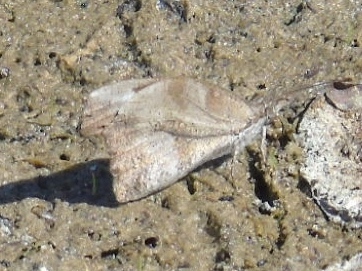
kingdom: Animalia
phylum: Arthropoda
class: Insecta
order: Lepidoptera
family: Nymphalidae
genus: Libytheana
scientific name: Libytheana carinenta
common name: American snout
